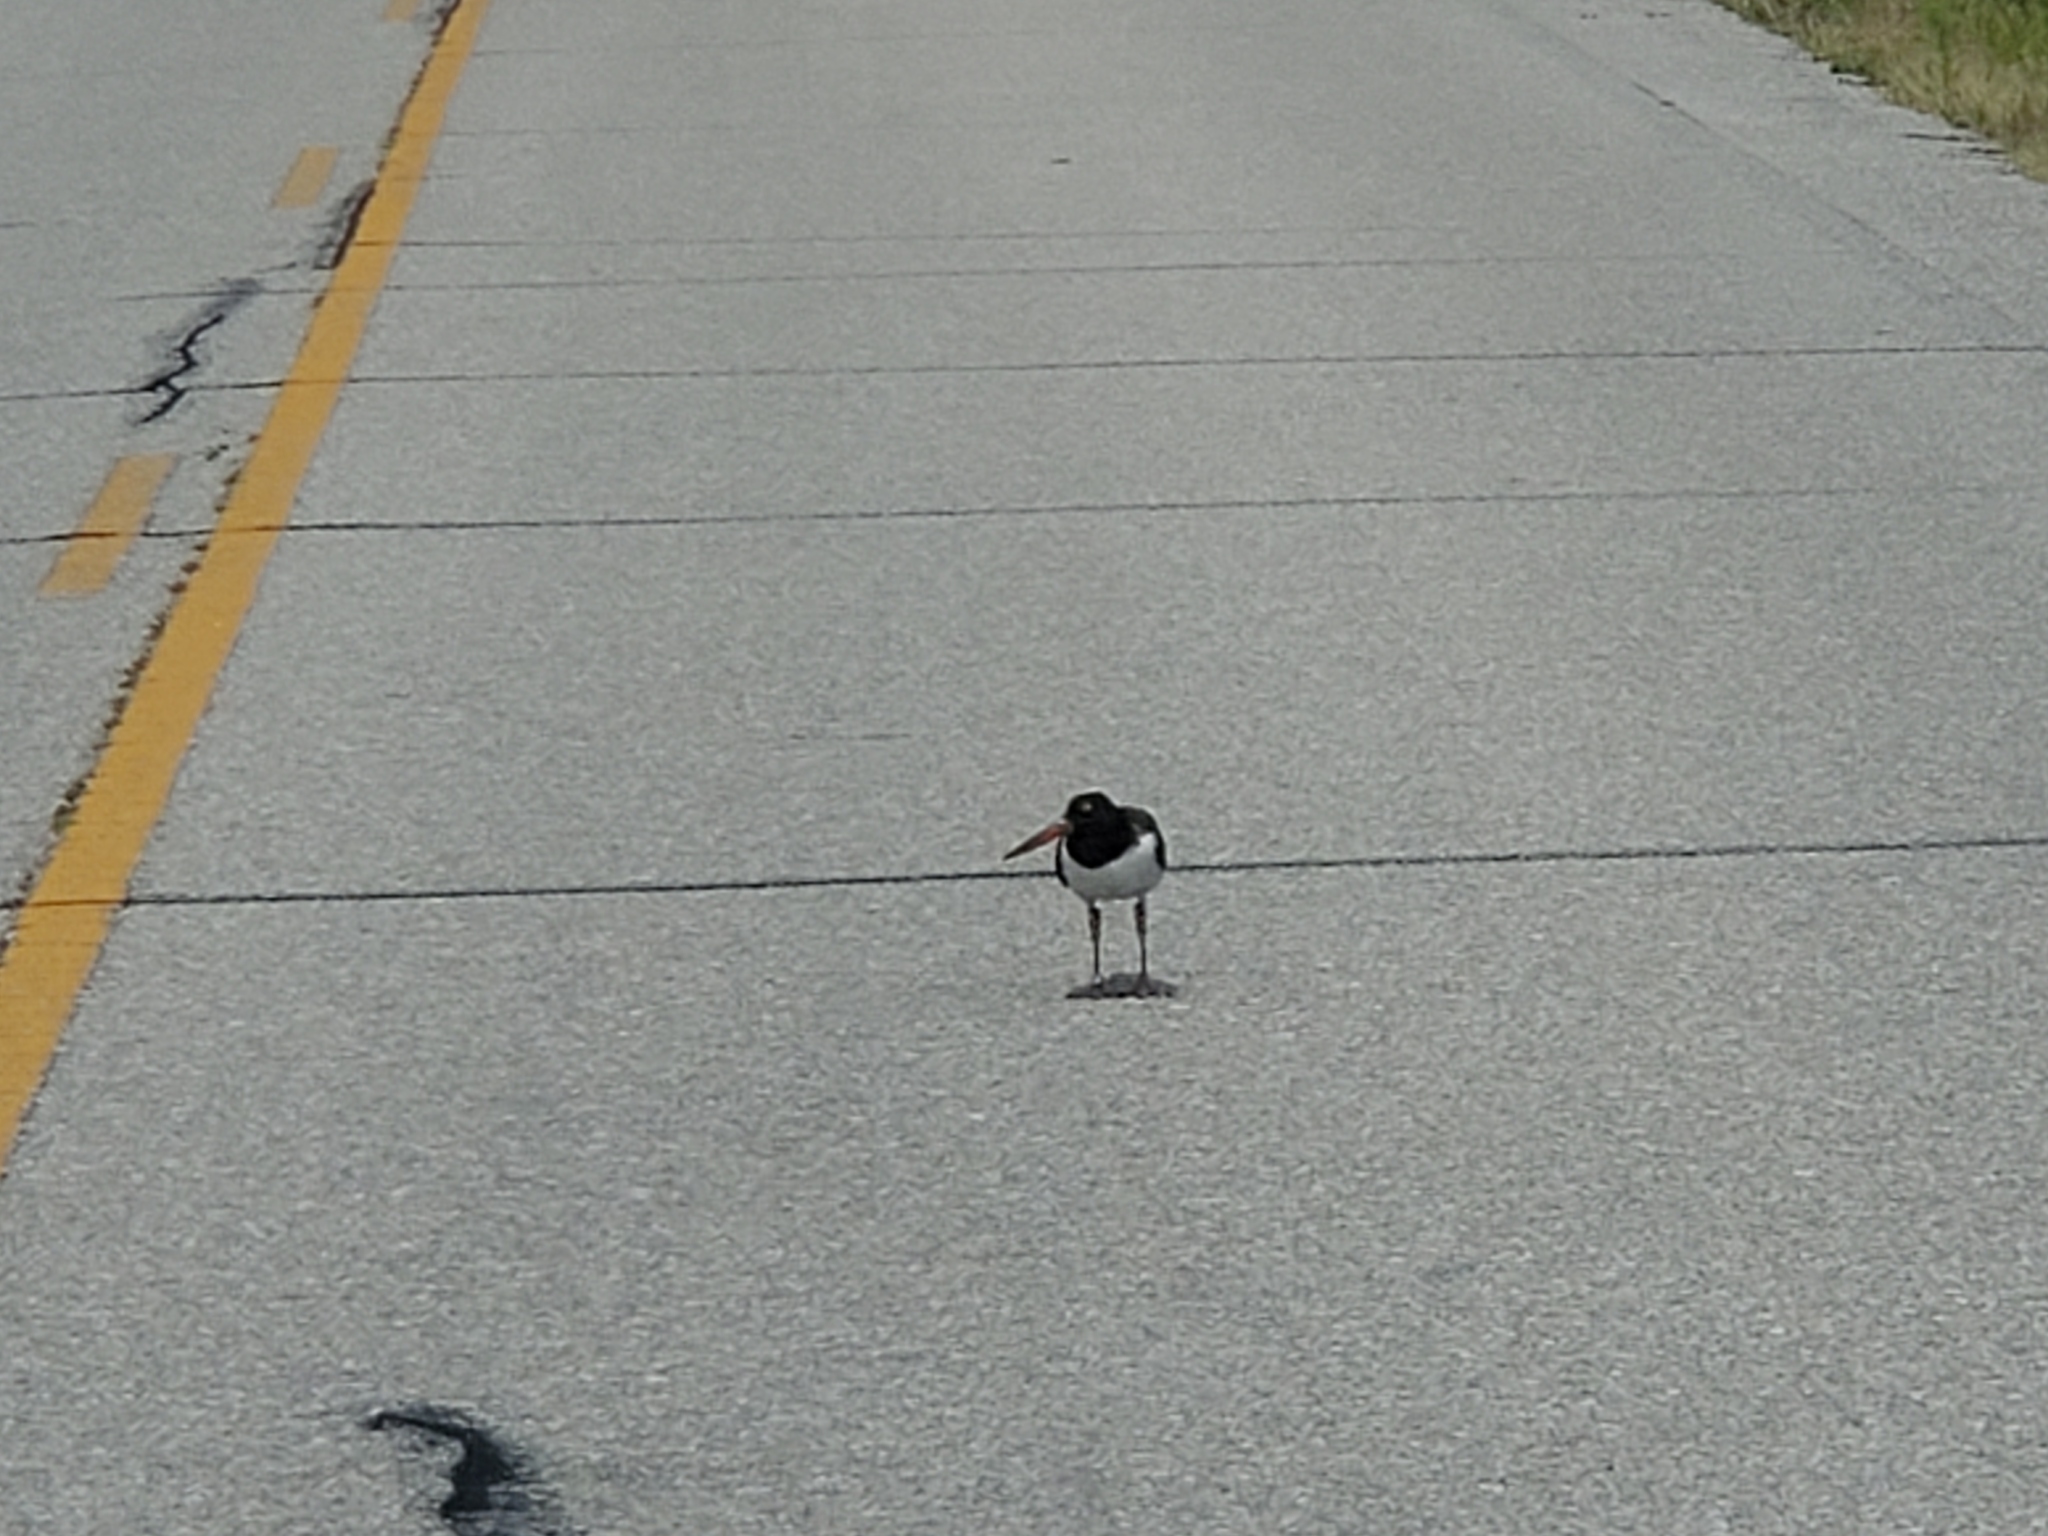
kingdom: Animalia
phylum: Chordata
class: Aves
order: Charadriiformes
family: Haematopodidae
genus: Haematopus
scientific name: Haematopus palliatus
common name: American oystercatcher
